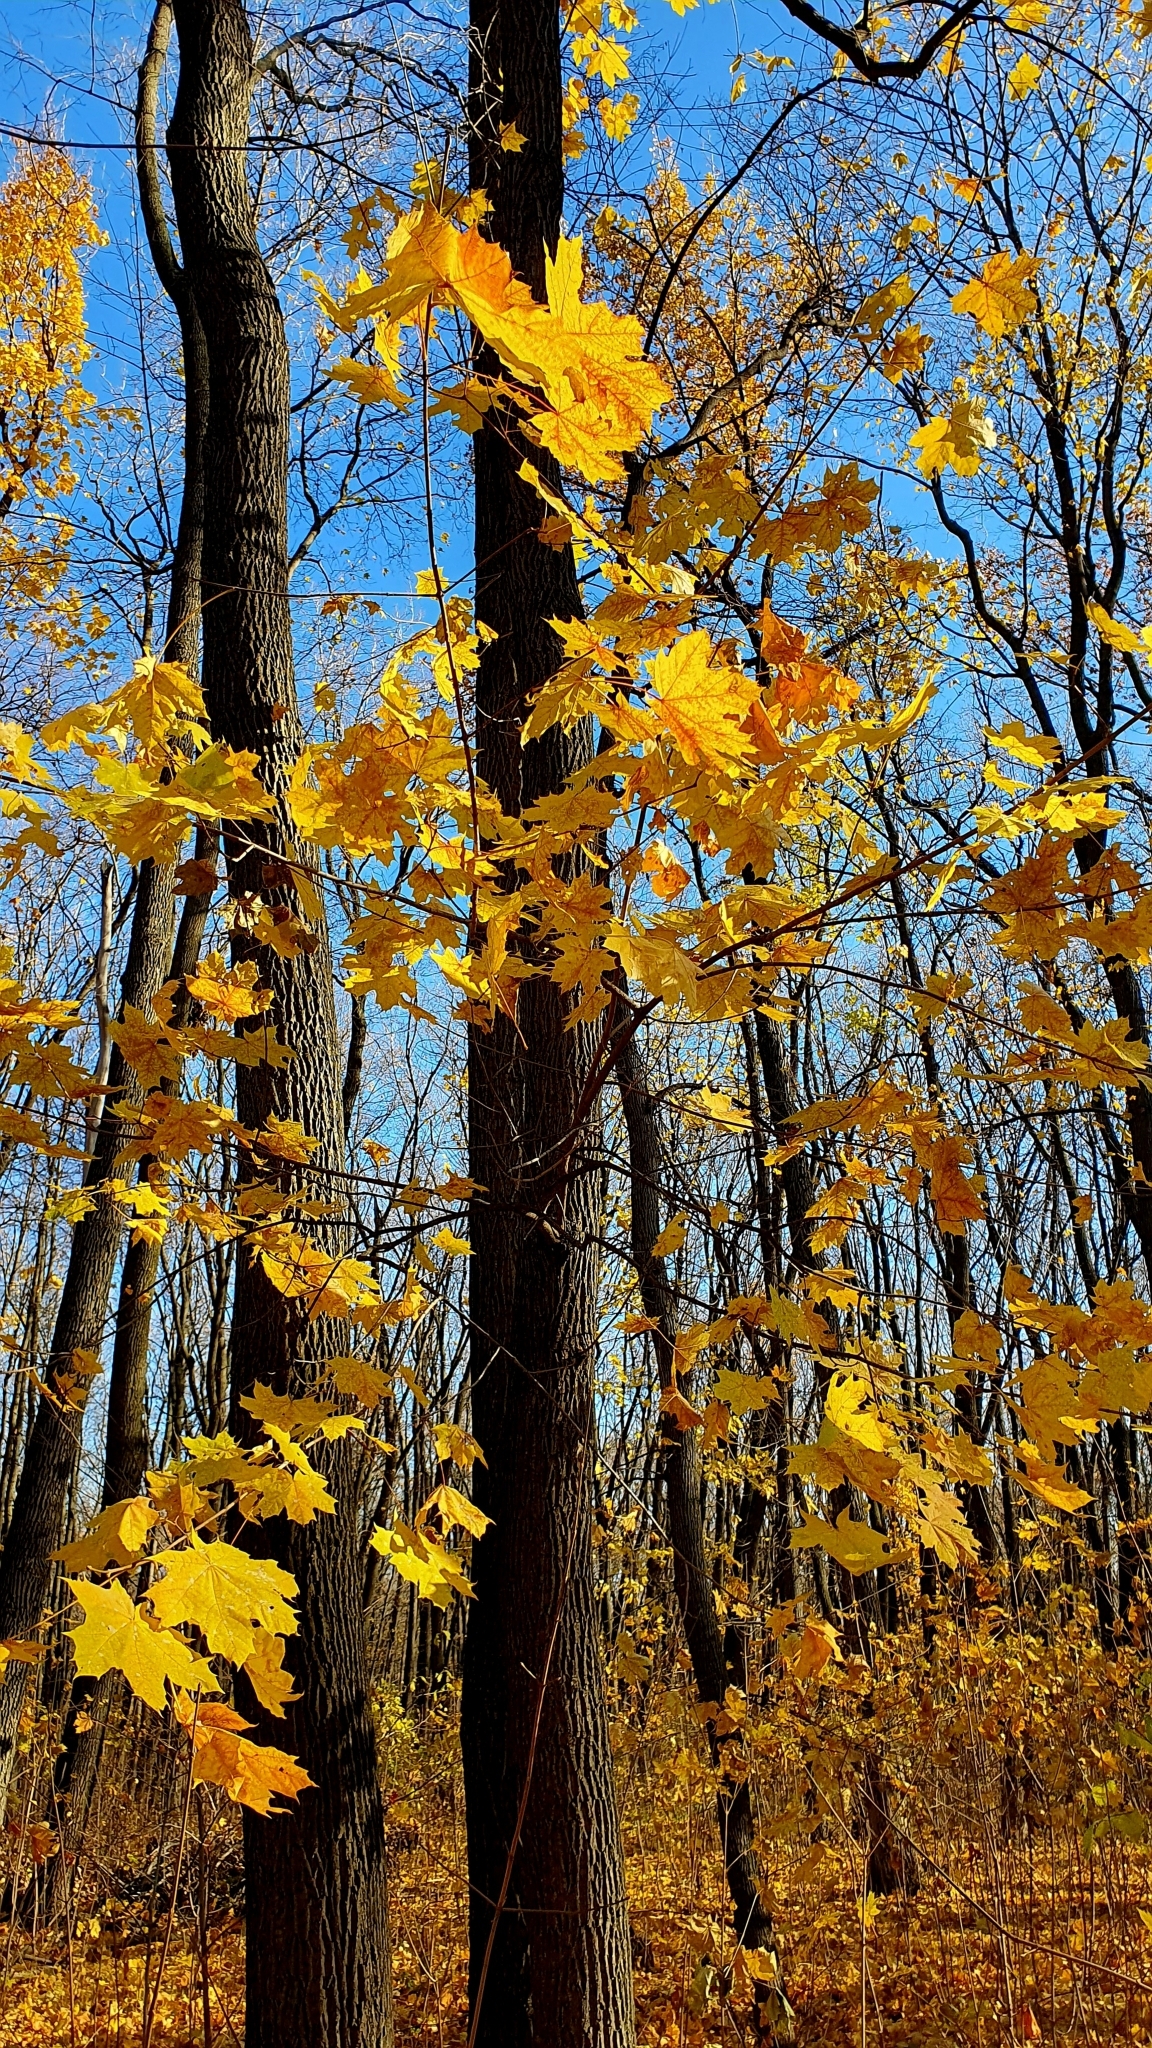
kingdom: Plantae
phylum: Tracheophyta
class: Magnoliopsida
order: Sapindales
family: Sapindaceae
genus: Acer
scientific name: Acer platanoides
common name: Norway maple
